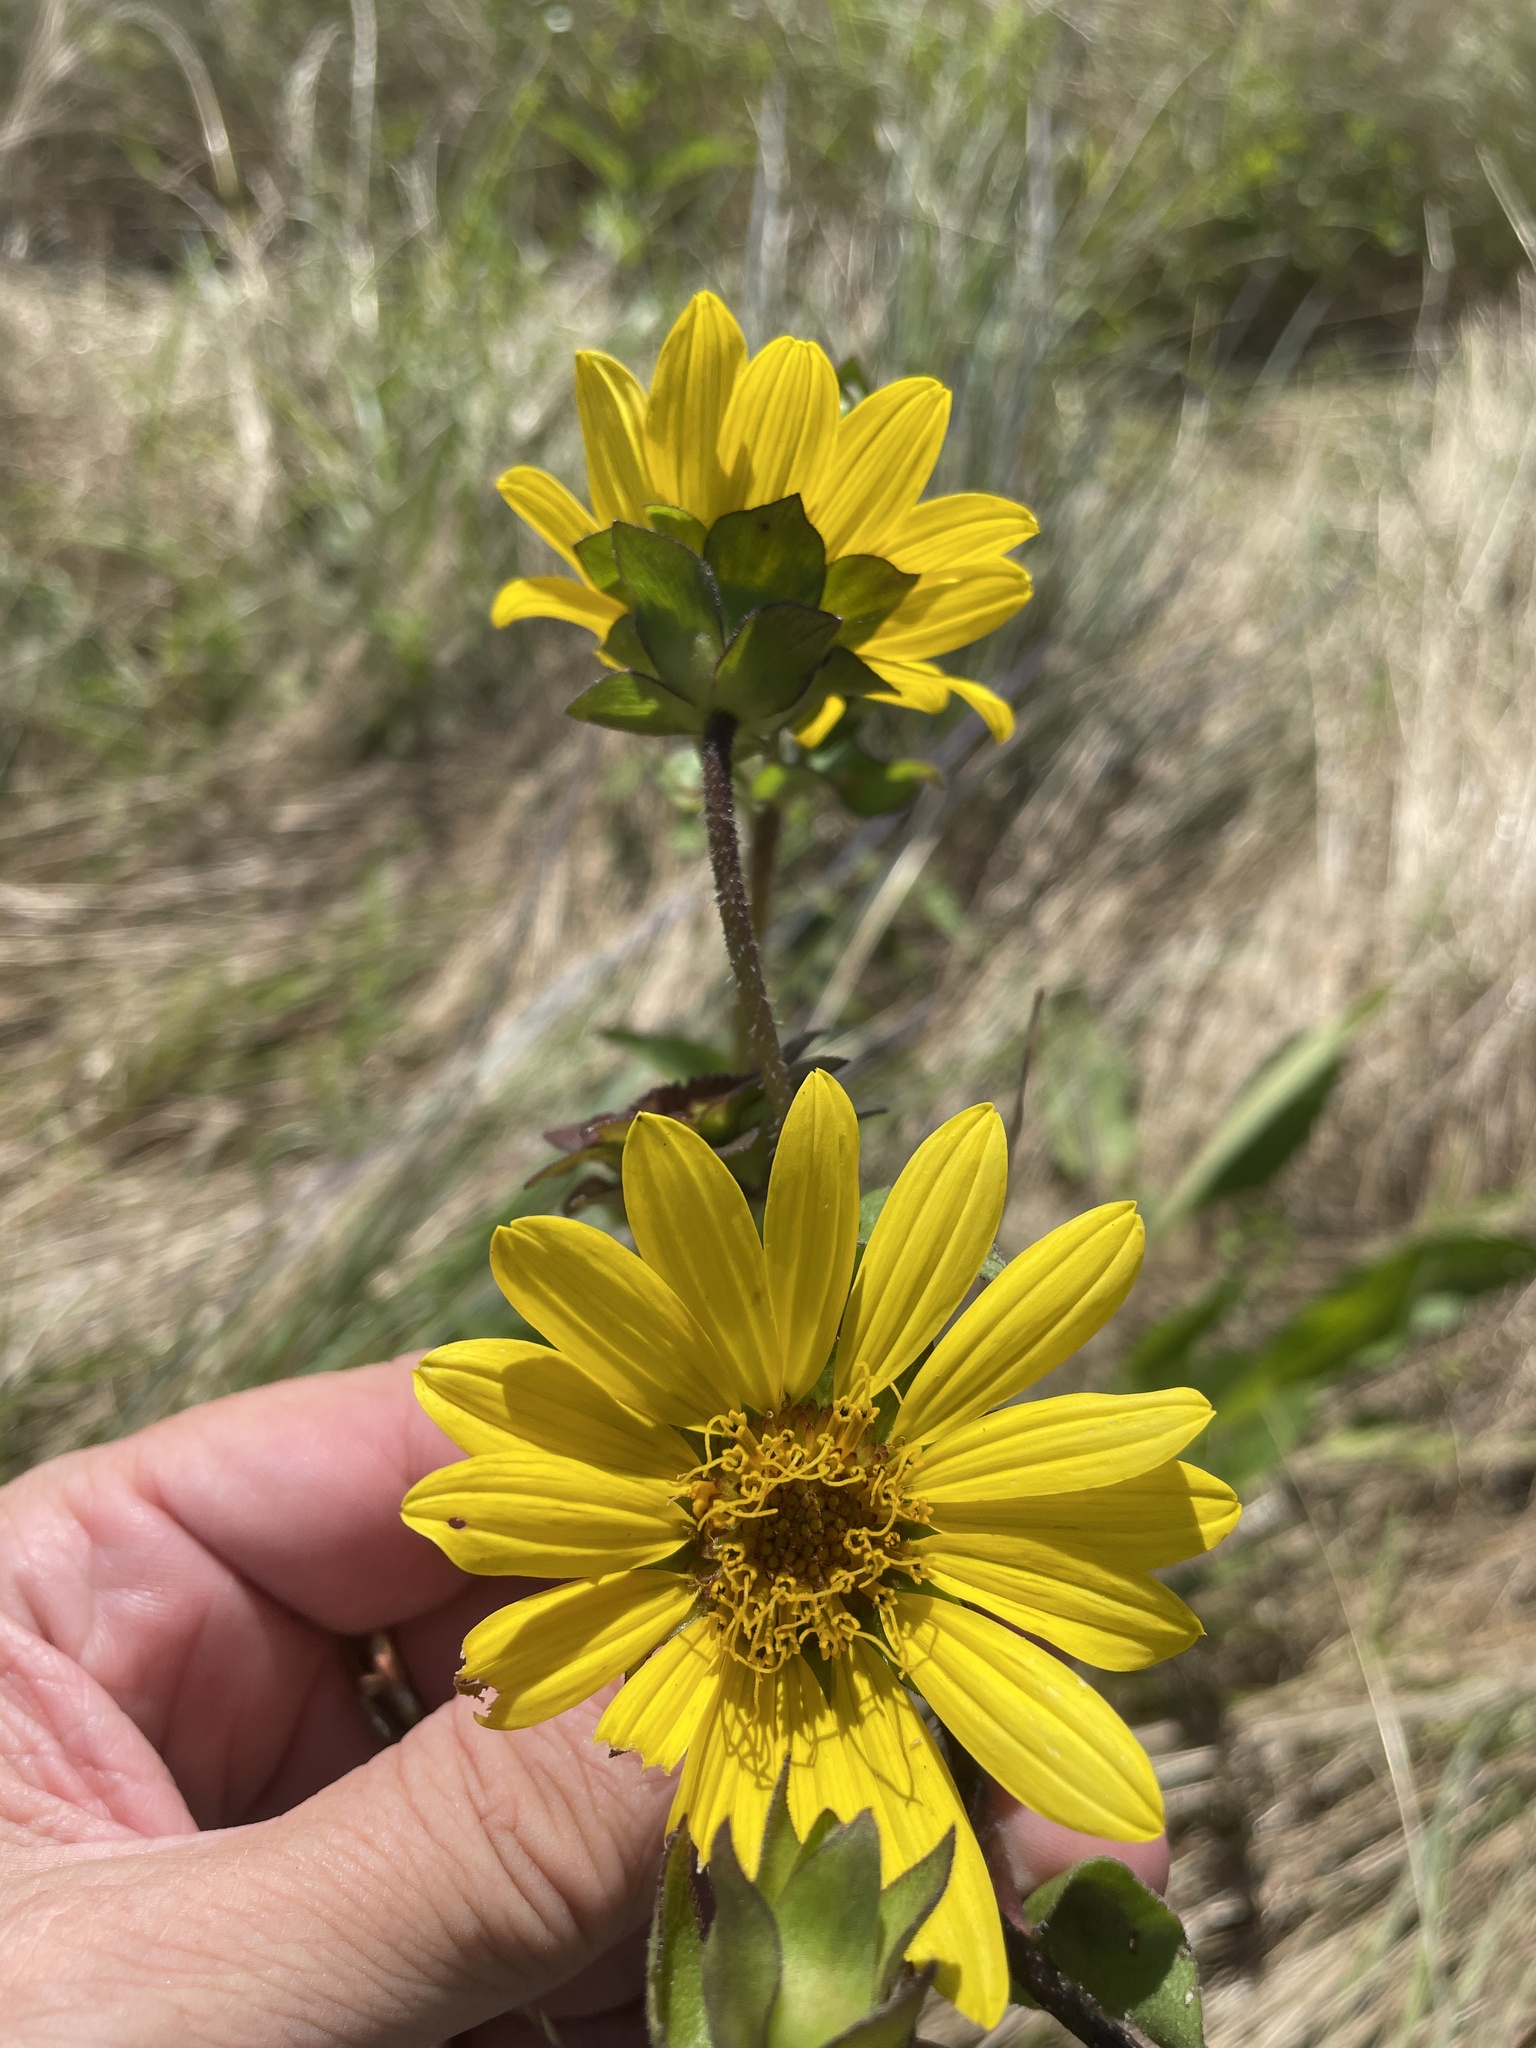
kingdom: Plantae
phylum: Tracheophyta
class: Magnoliopsida
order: Asterales
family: Asteraceae
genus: Silphium
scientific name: Silphium radula
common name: Roughleaf rosinweed
